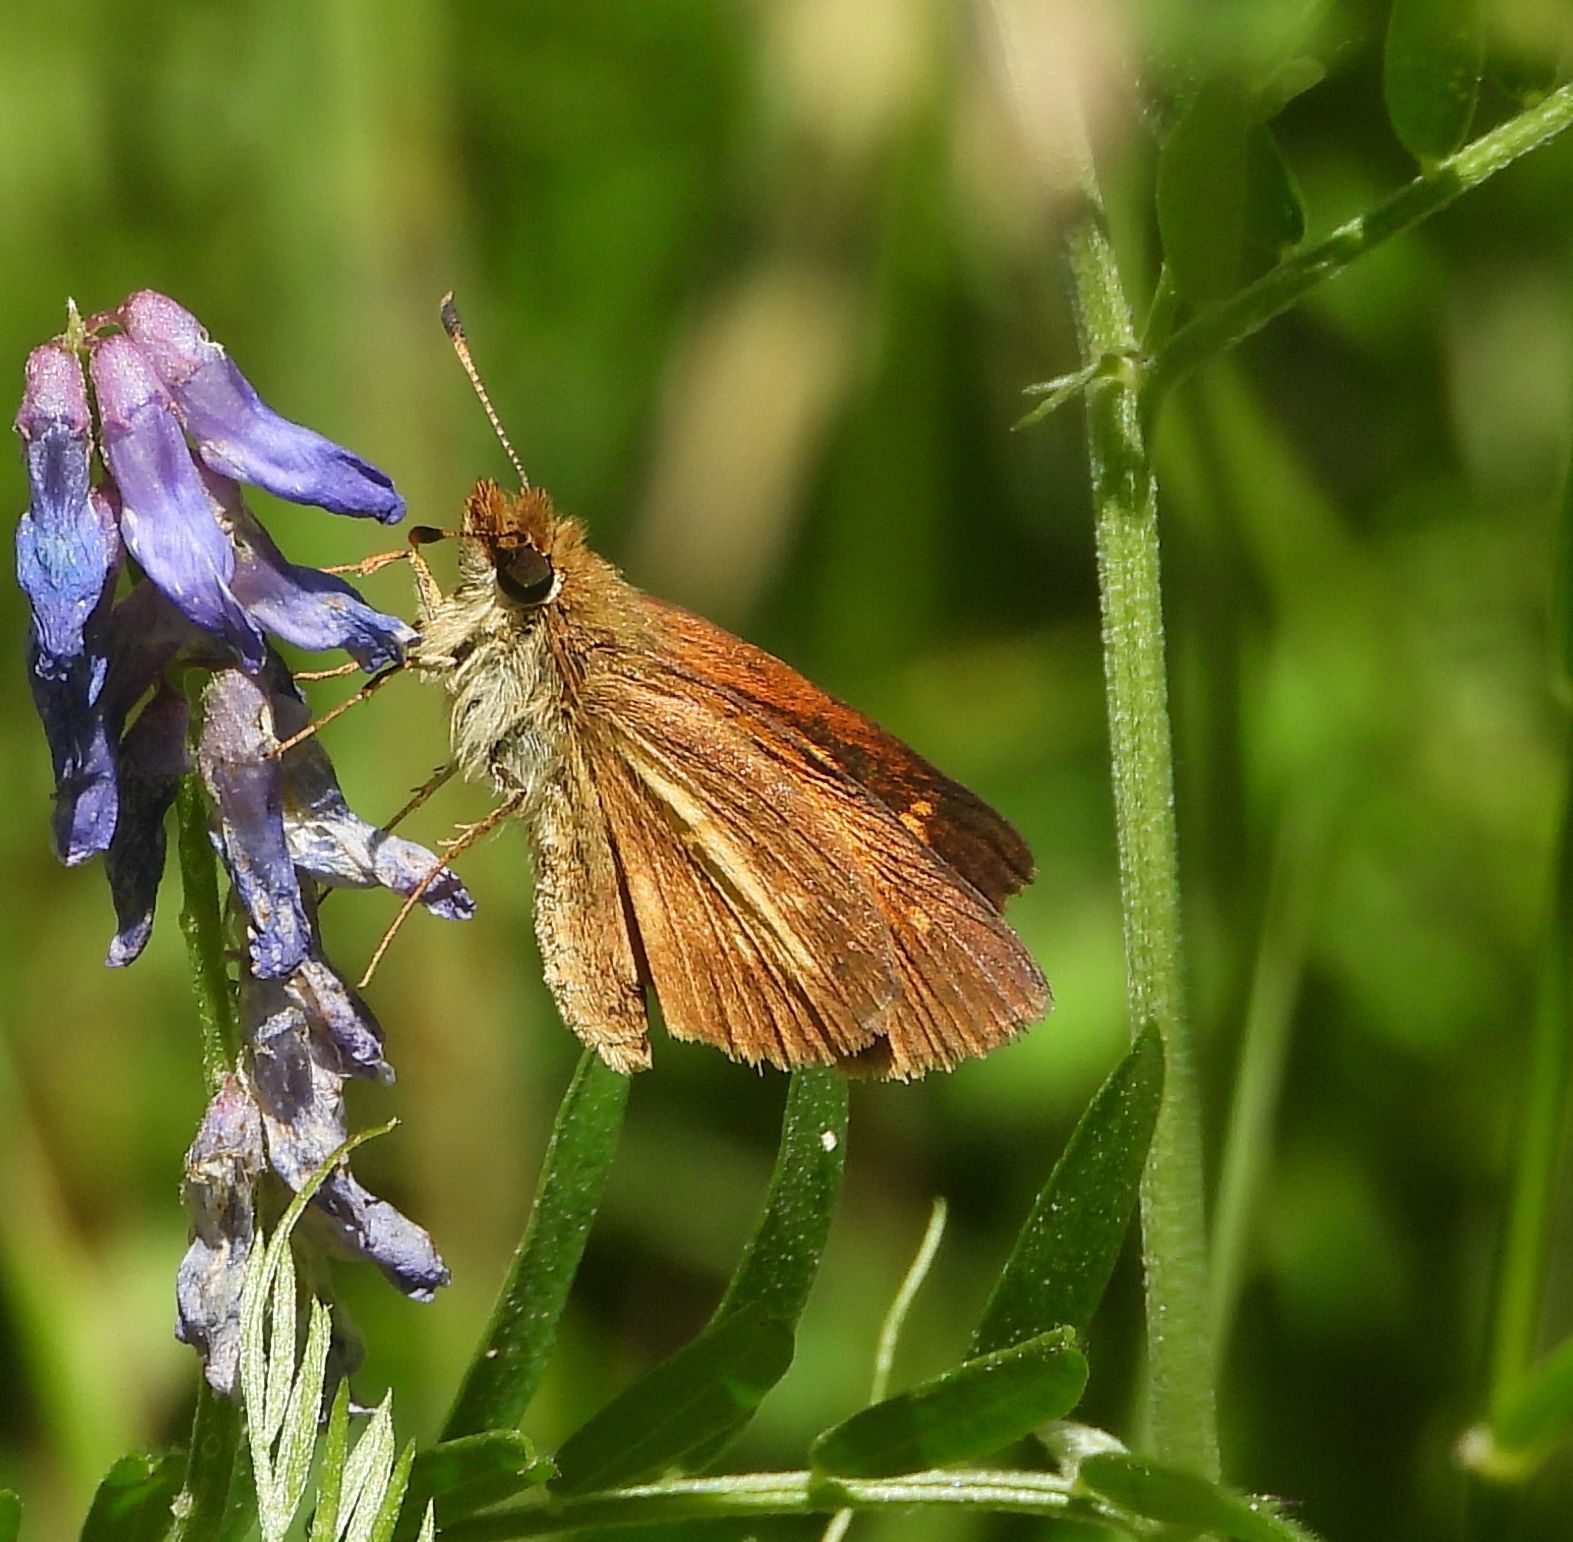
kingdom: Animalia
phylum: Arthropoda
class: Insecta
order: Lepidoptera
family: Hesperiidae
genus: Poanes
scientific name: Poanes viator
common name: Broad-winged skipper
